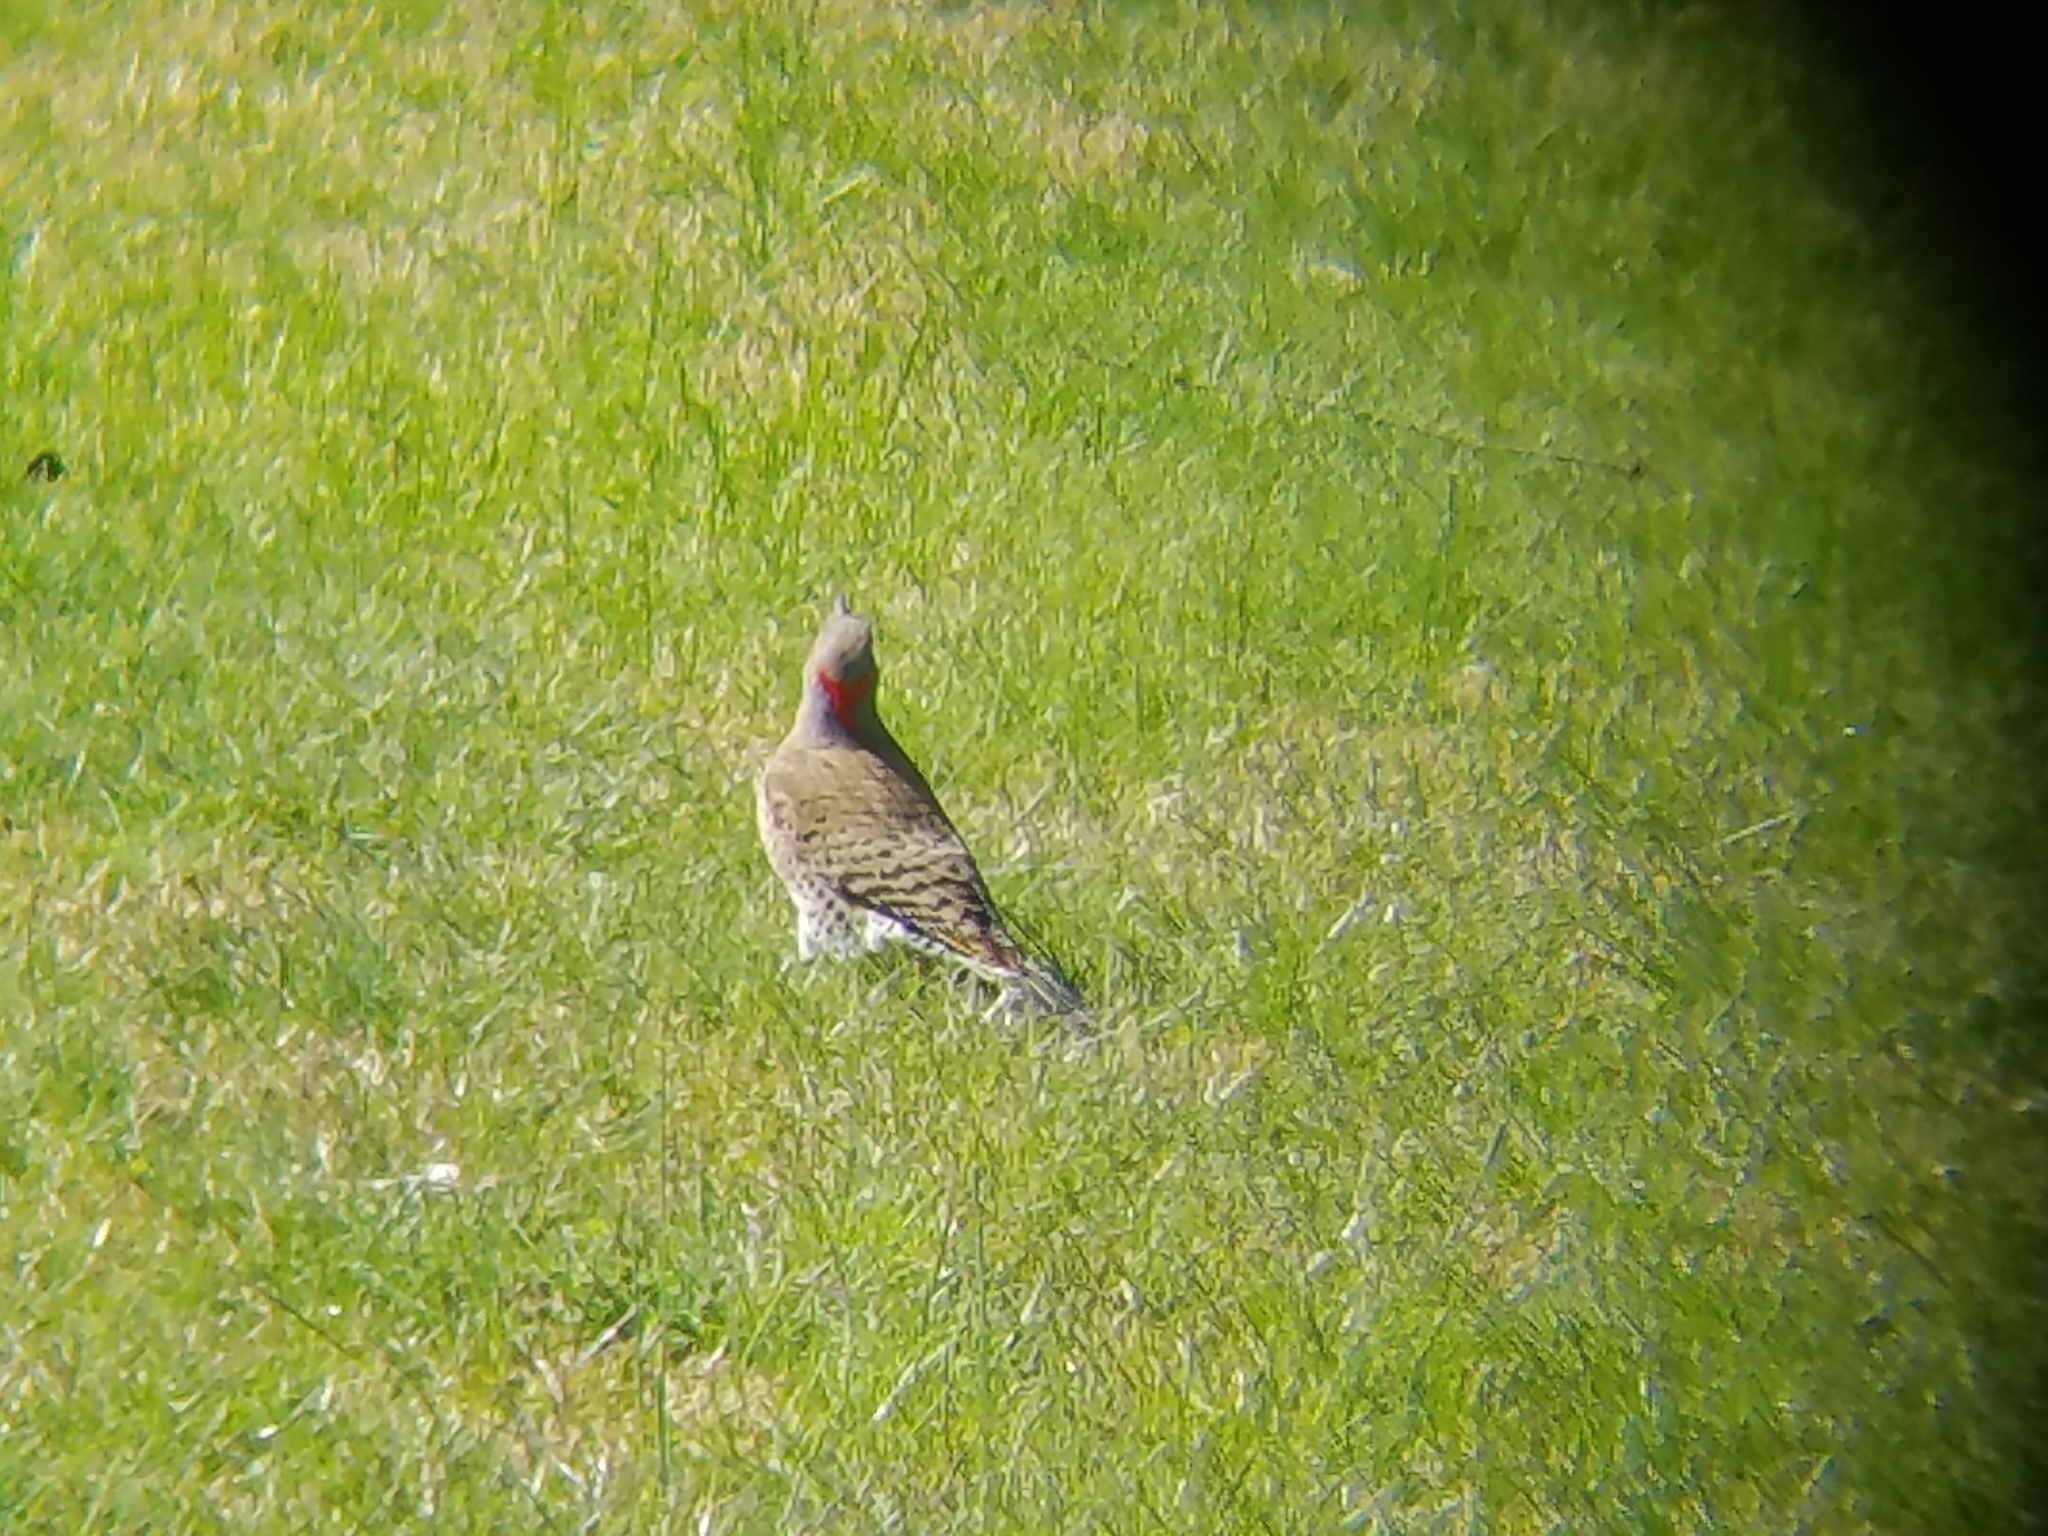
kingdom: Animalia
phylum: Chordata
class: Aves
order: Piciformes
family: Picidae
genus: Colaptes
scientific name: Colaptes auratus
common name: Northern flicker
